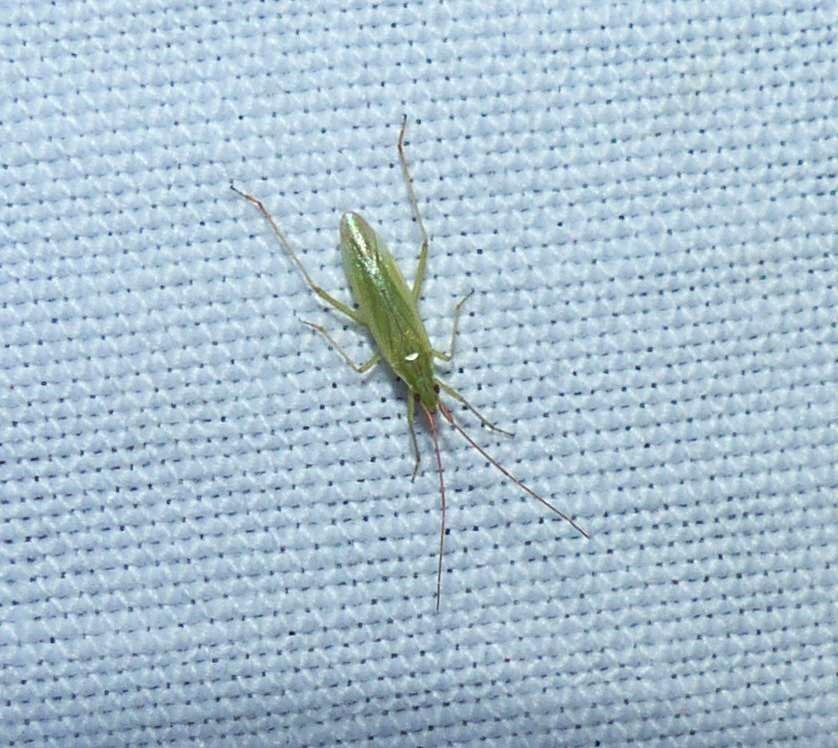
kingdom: Animalia
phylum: Arthropoda
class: Insecta
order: Hemiptera
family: Miridae
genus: Trigonotylus
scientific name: Trigonotylus caelestialium
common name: Rice leaf bug
